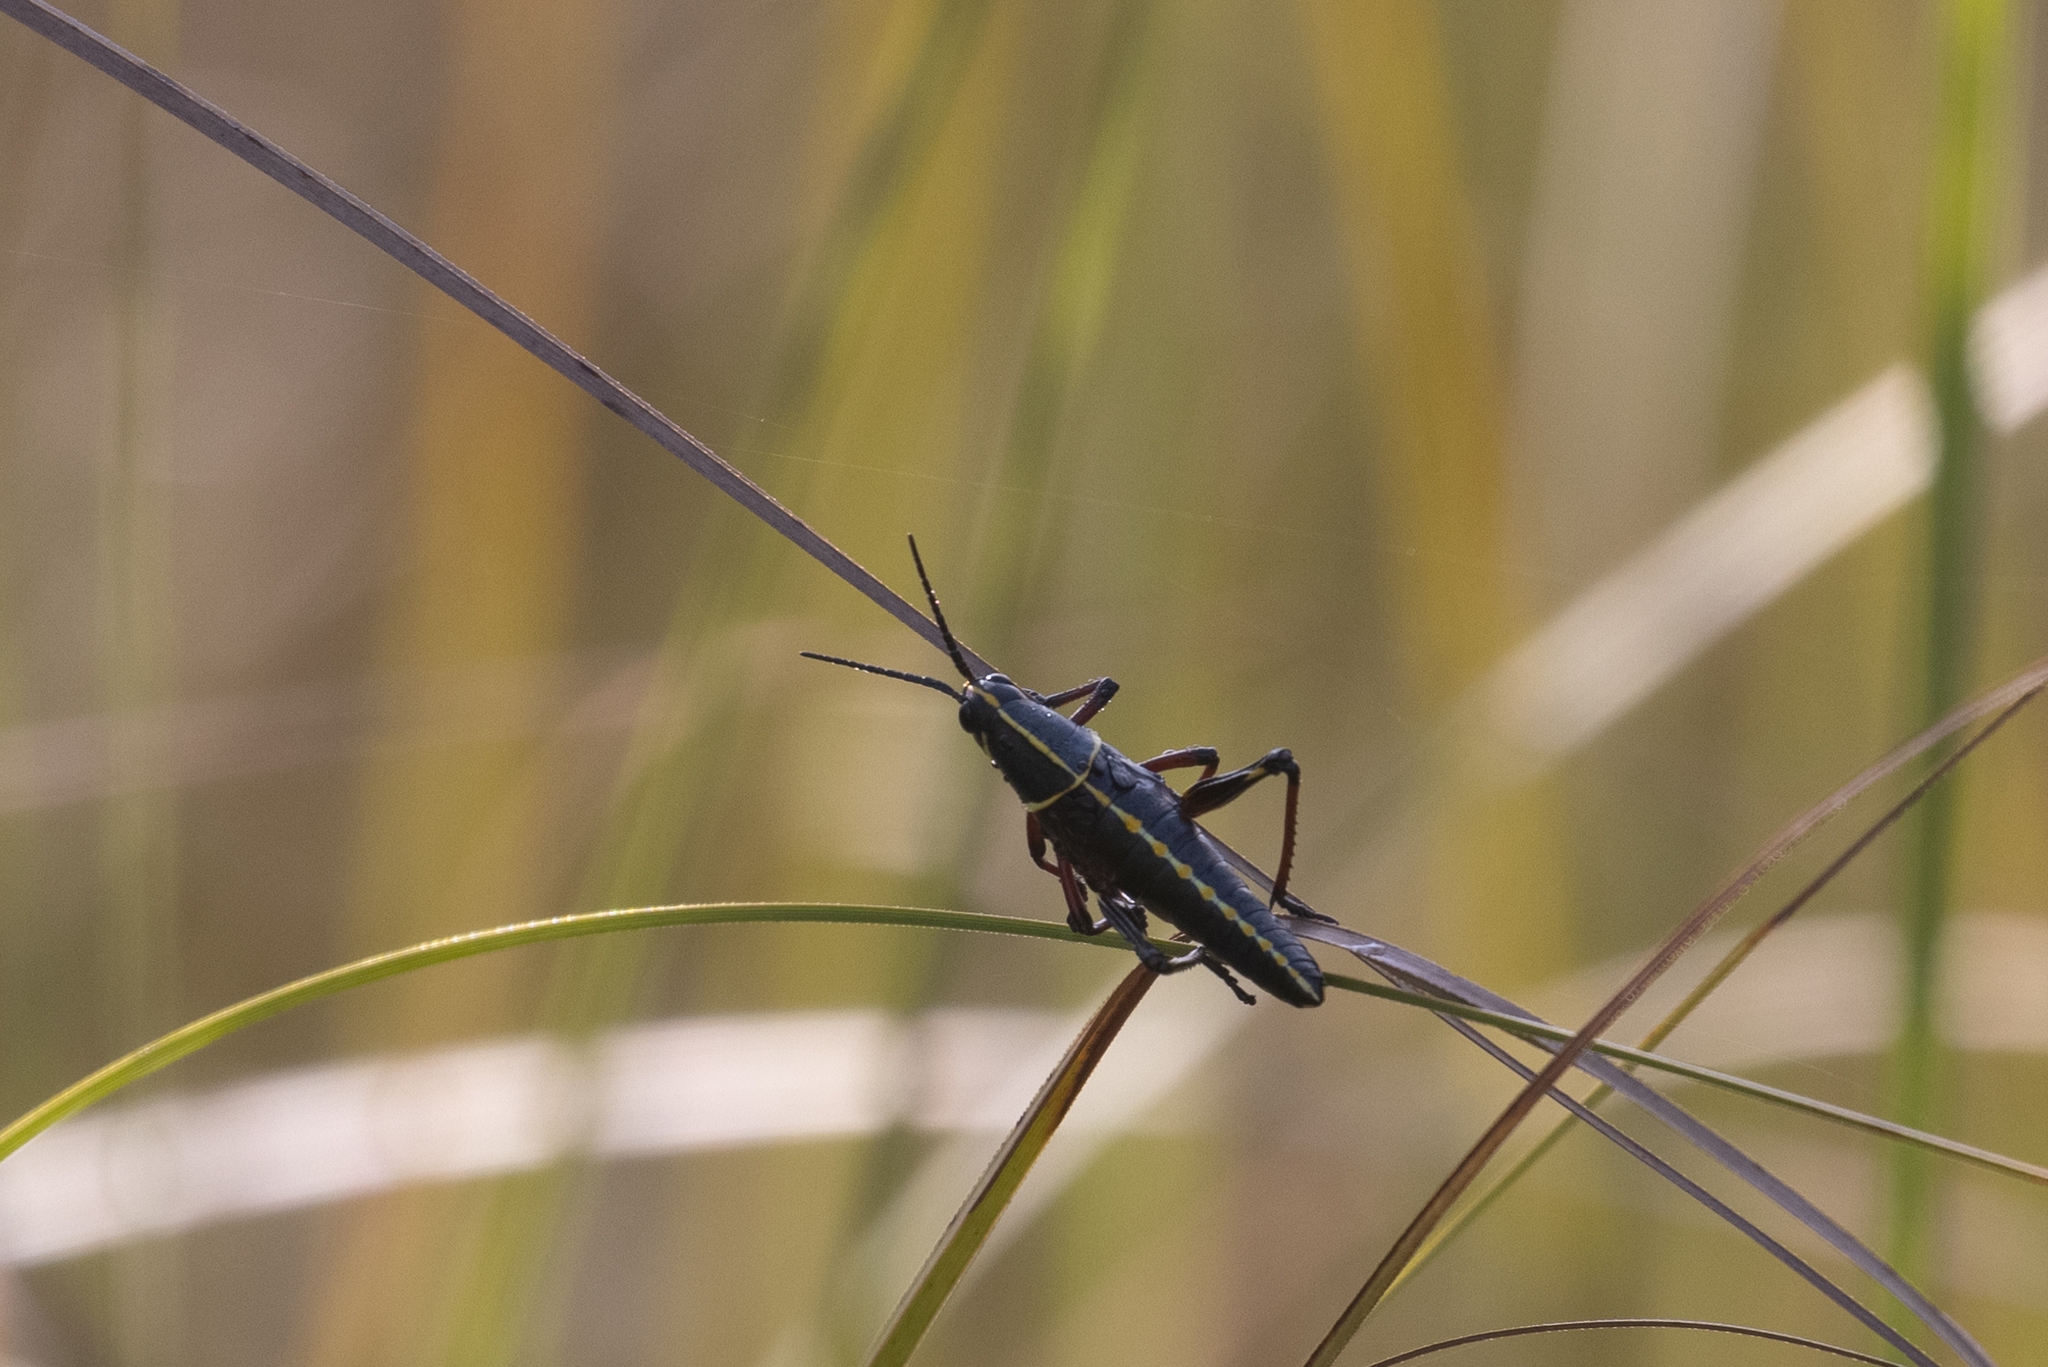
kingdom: Animalia
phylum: Arthropoda
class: Insecta
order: Orthoptera
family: Romaleidae
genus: Romalea
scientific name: Romalea microptera
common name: Eastern lubber grasshopper
